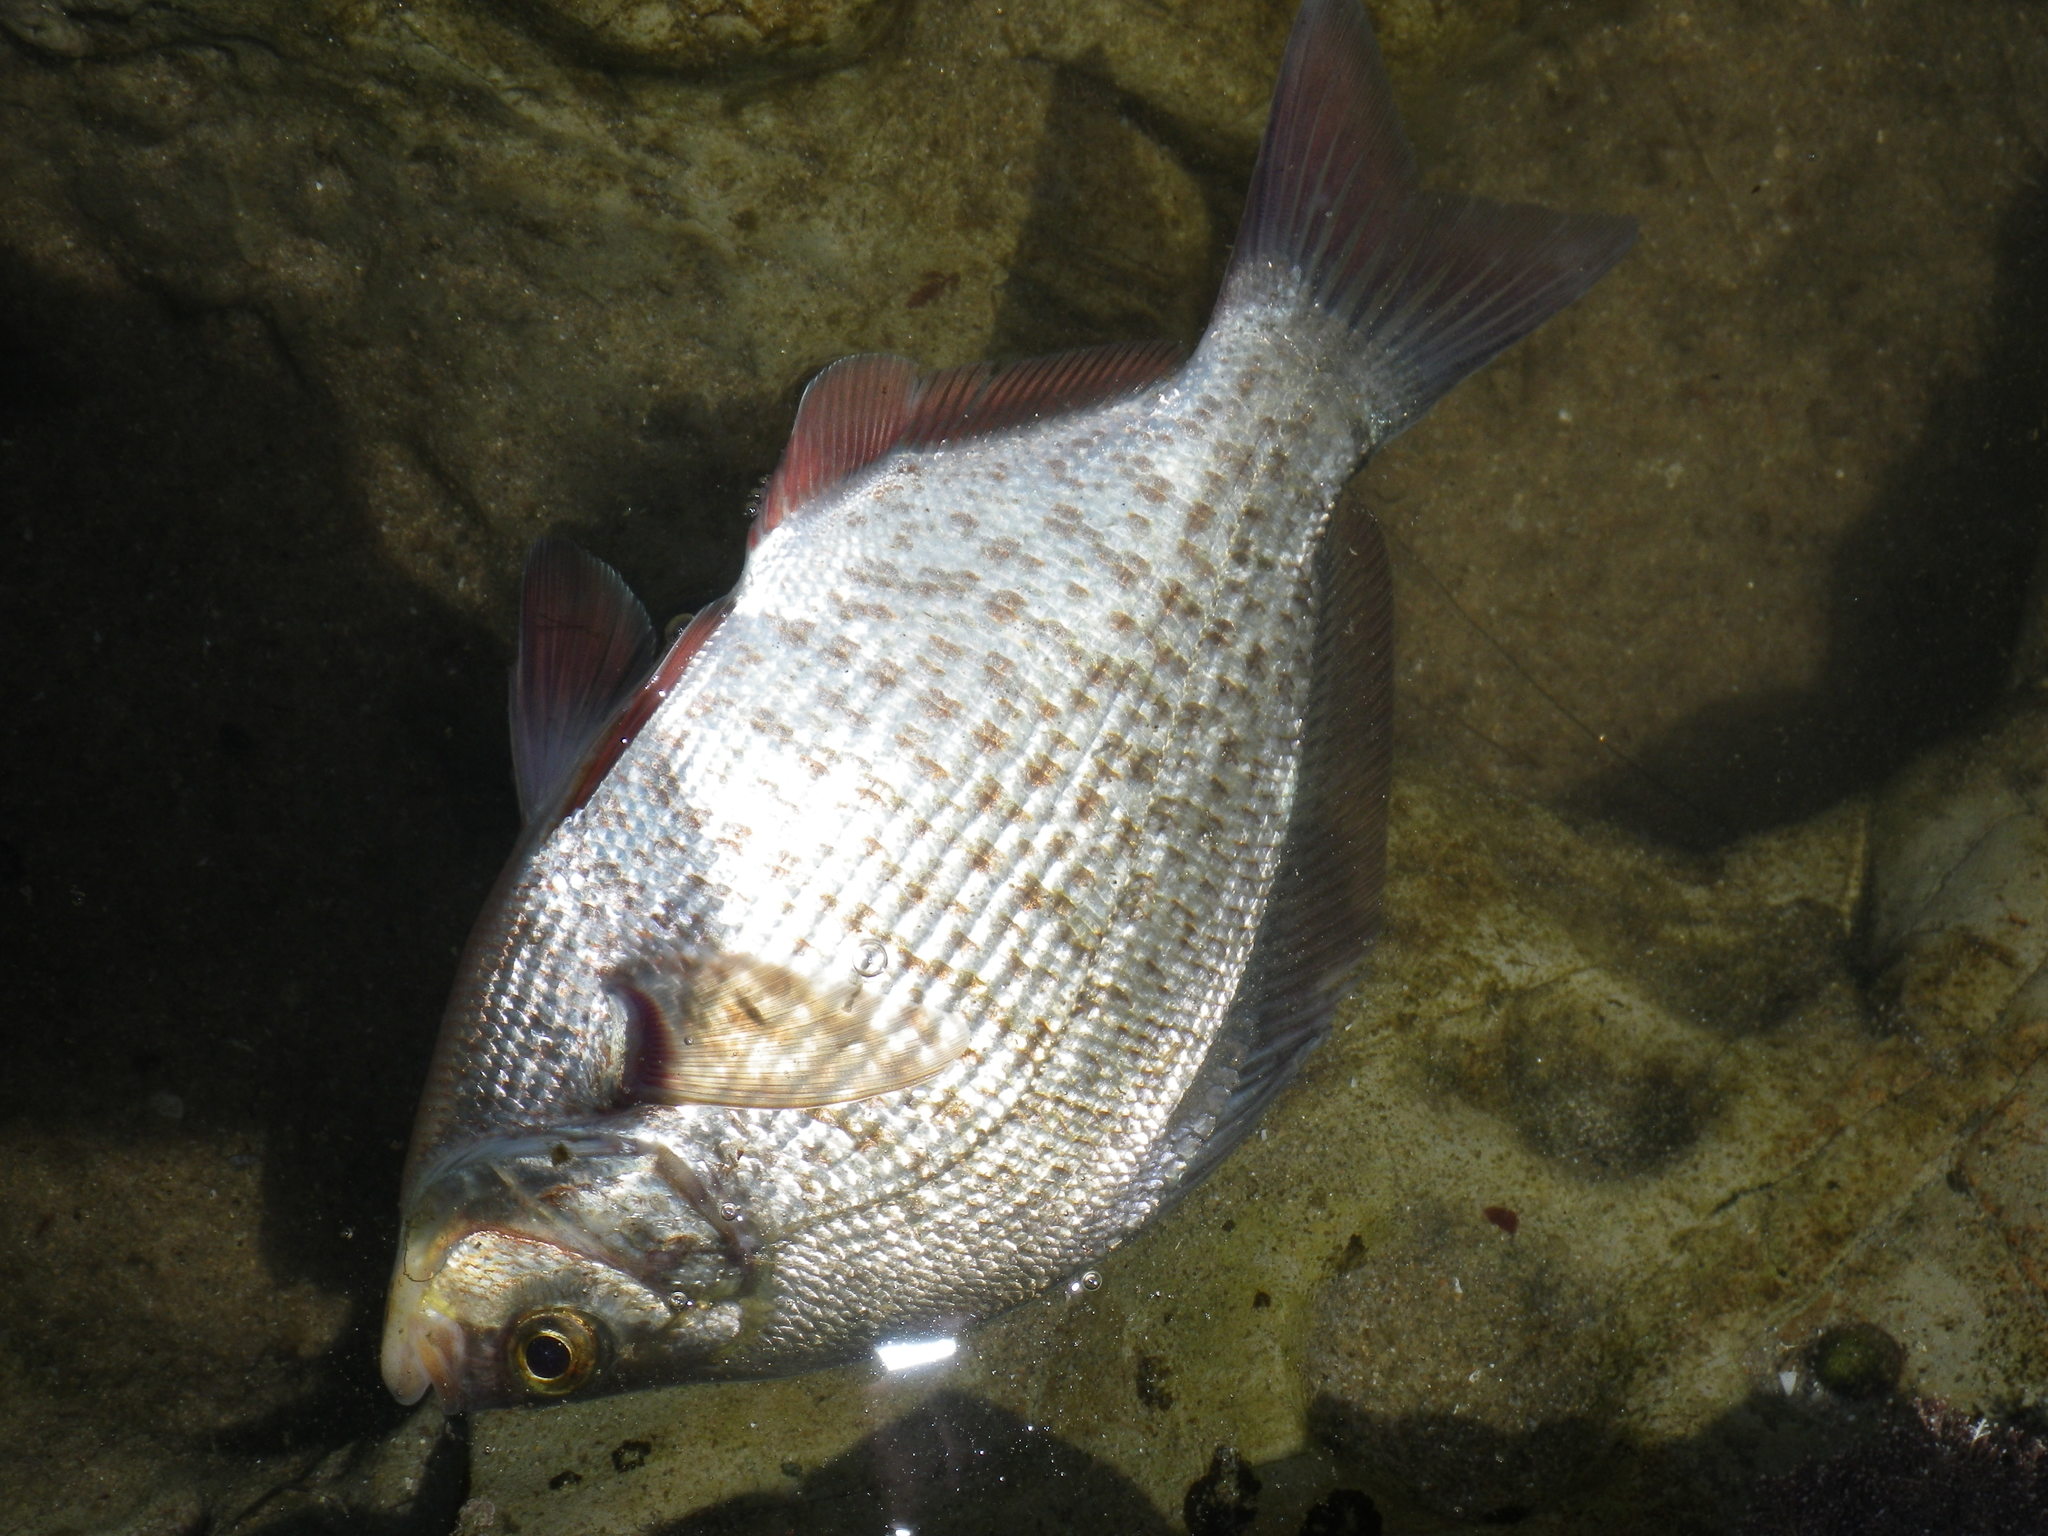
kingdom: Animalia
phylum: Chordata
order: Perciformes
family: Embiotocidae
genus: Amphistichus
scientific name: Amphistichus koelzi
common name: Calico surfperch
